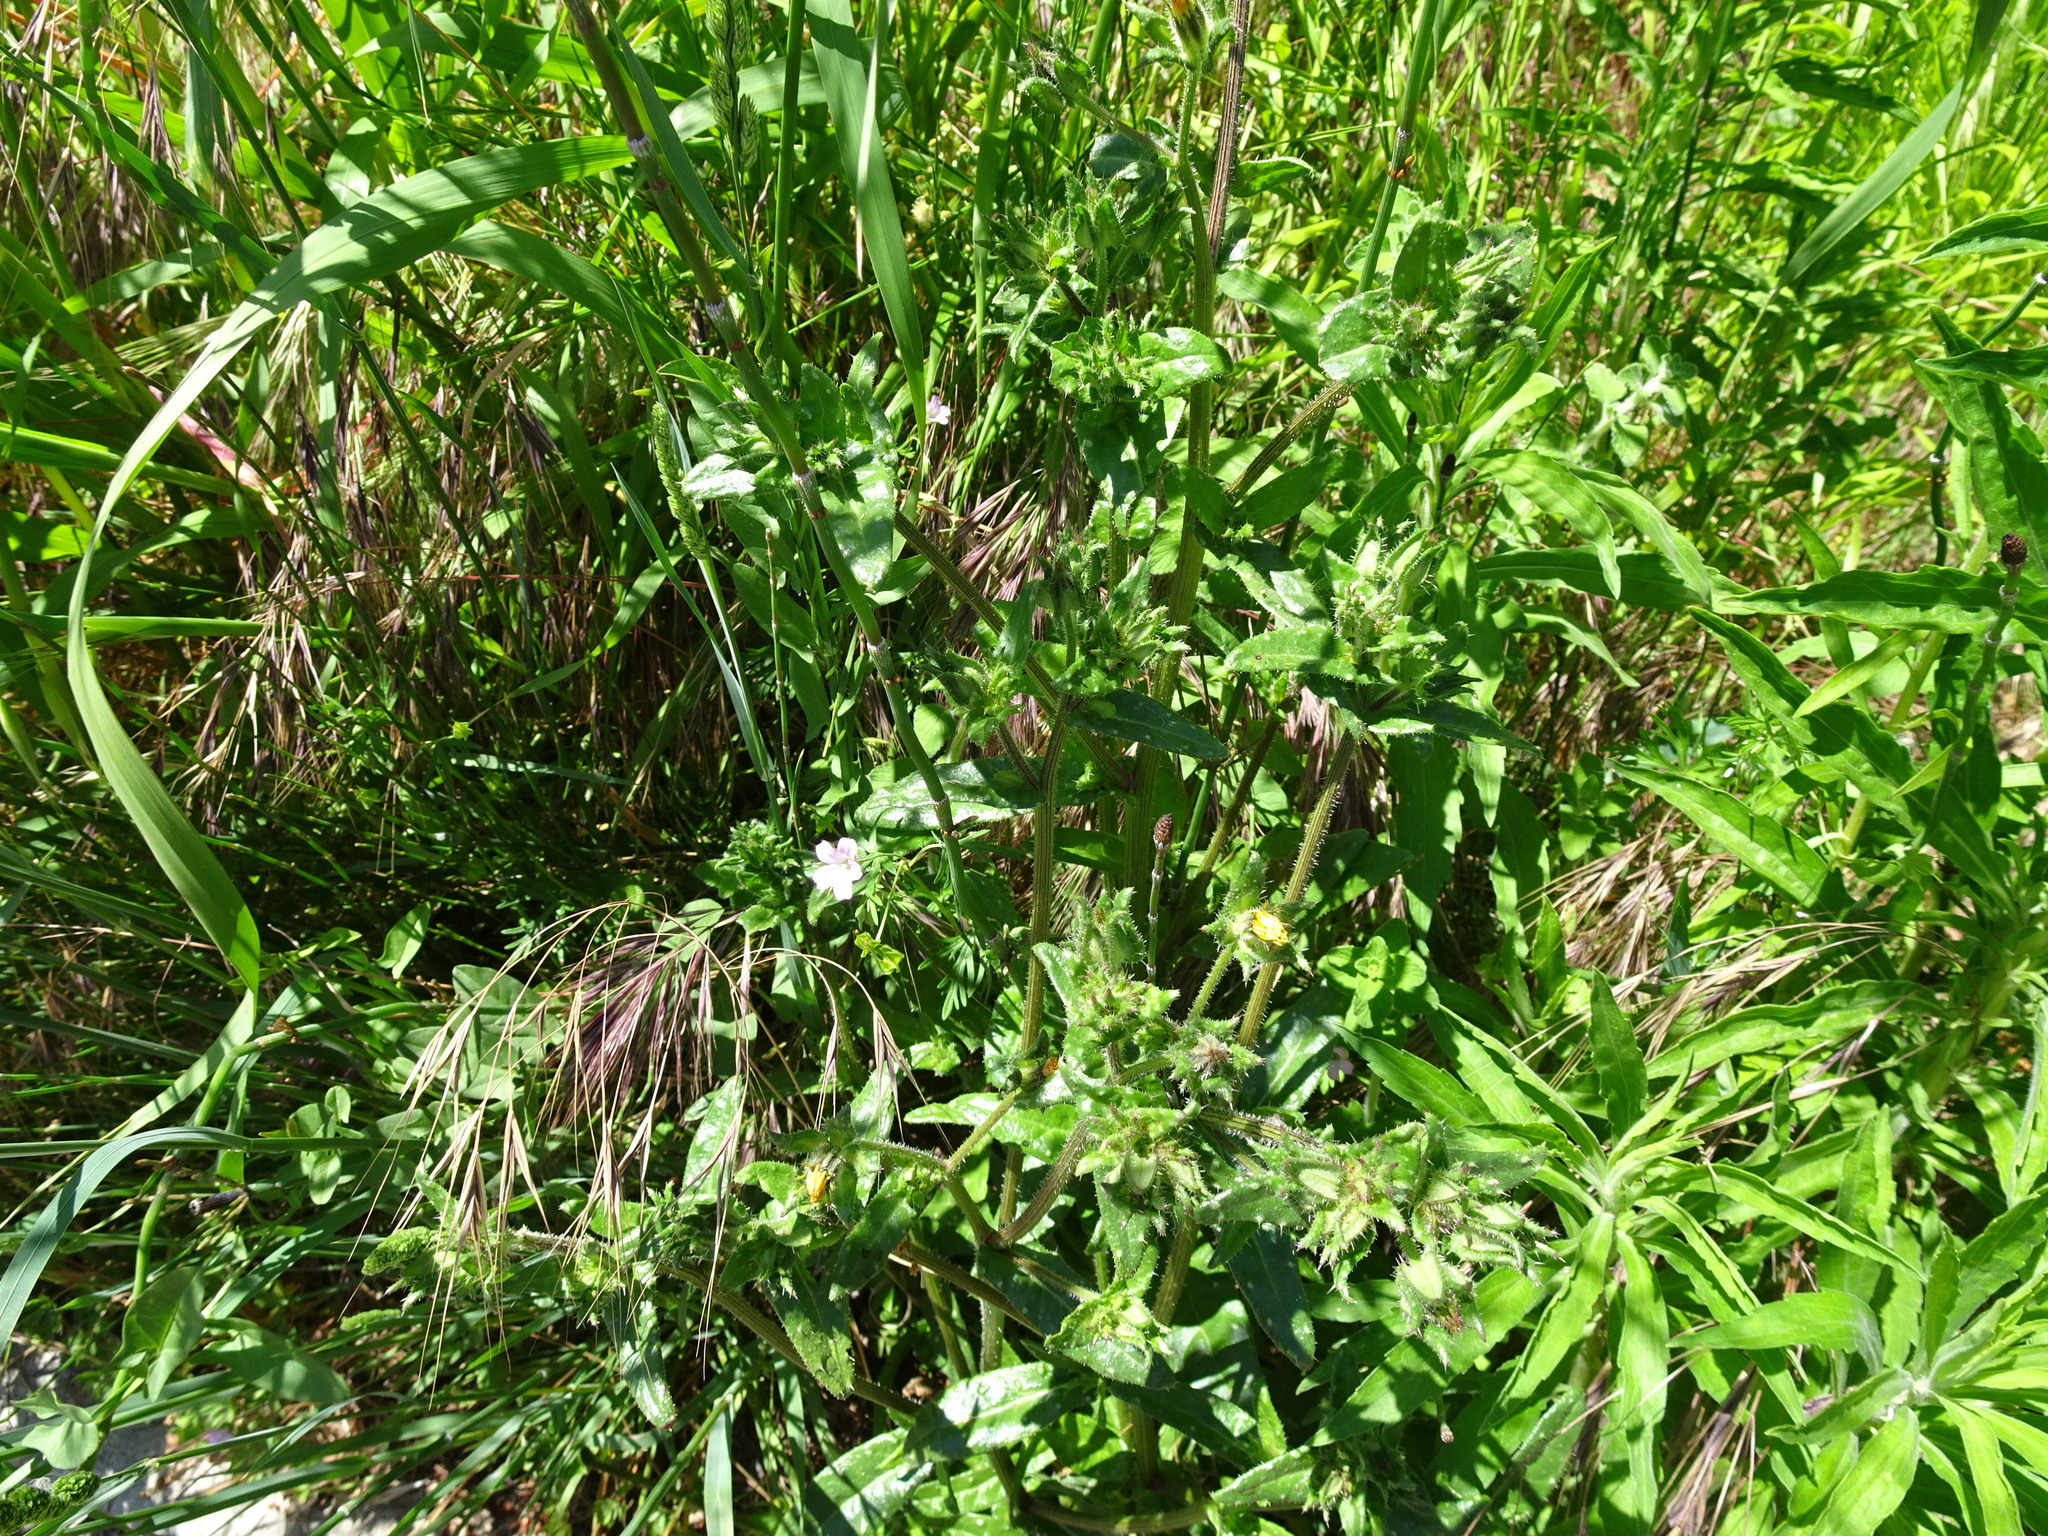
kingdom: Plantae
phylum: Tracheophyta
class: Magnoliopsida
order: Asterales
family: Asteraceae
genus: Helminthotheca
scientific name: Helminthotheca echioides
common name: Ox-tongue
